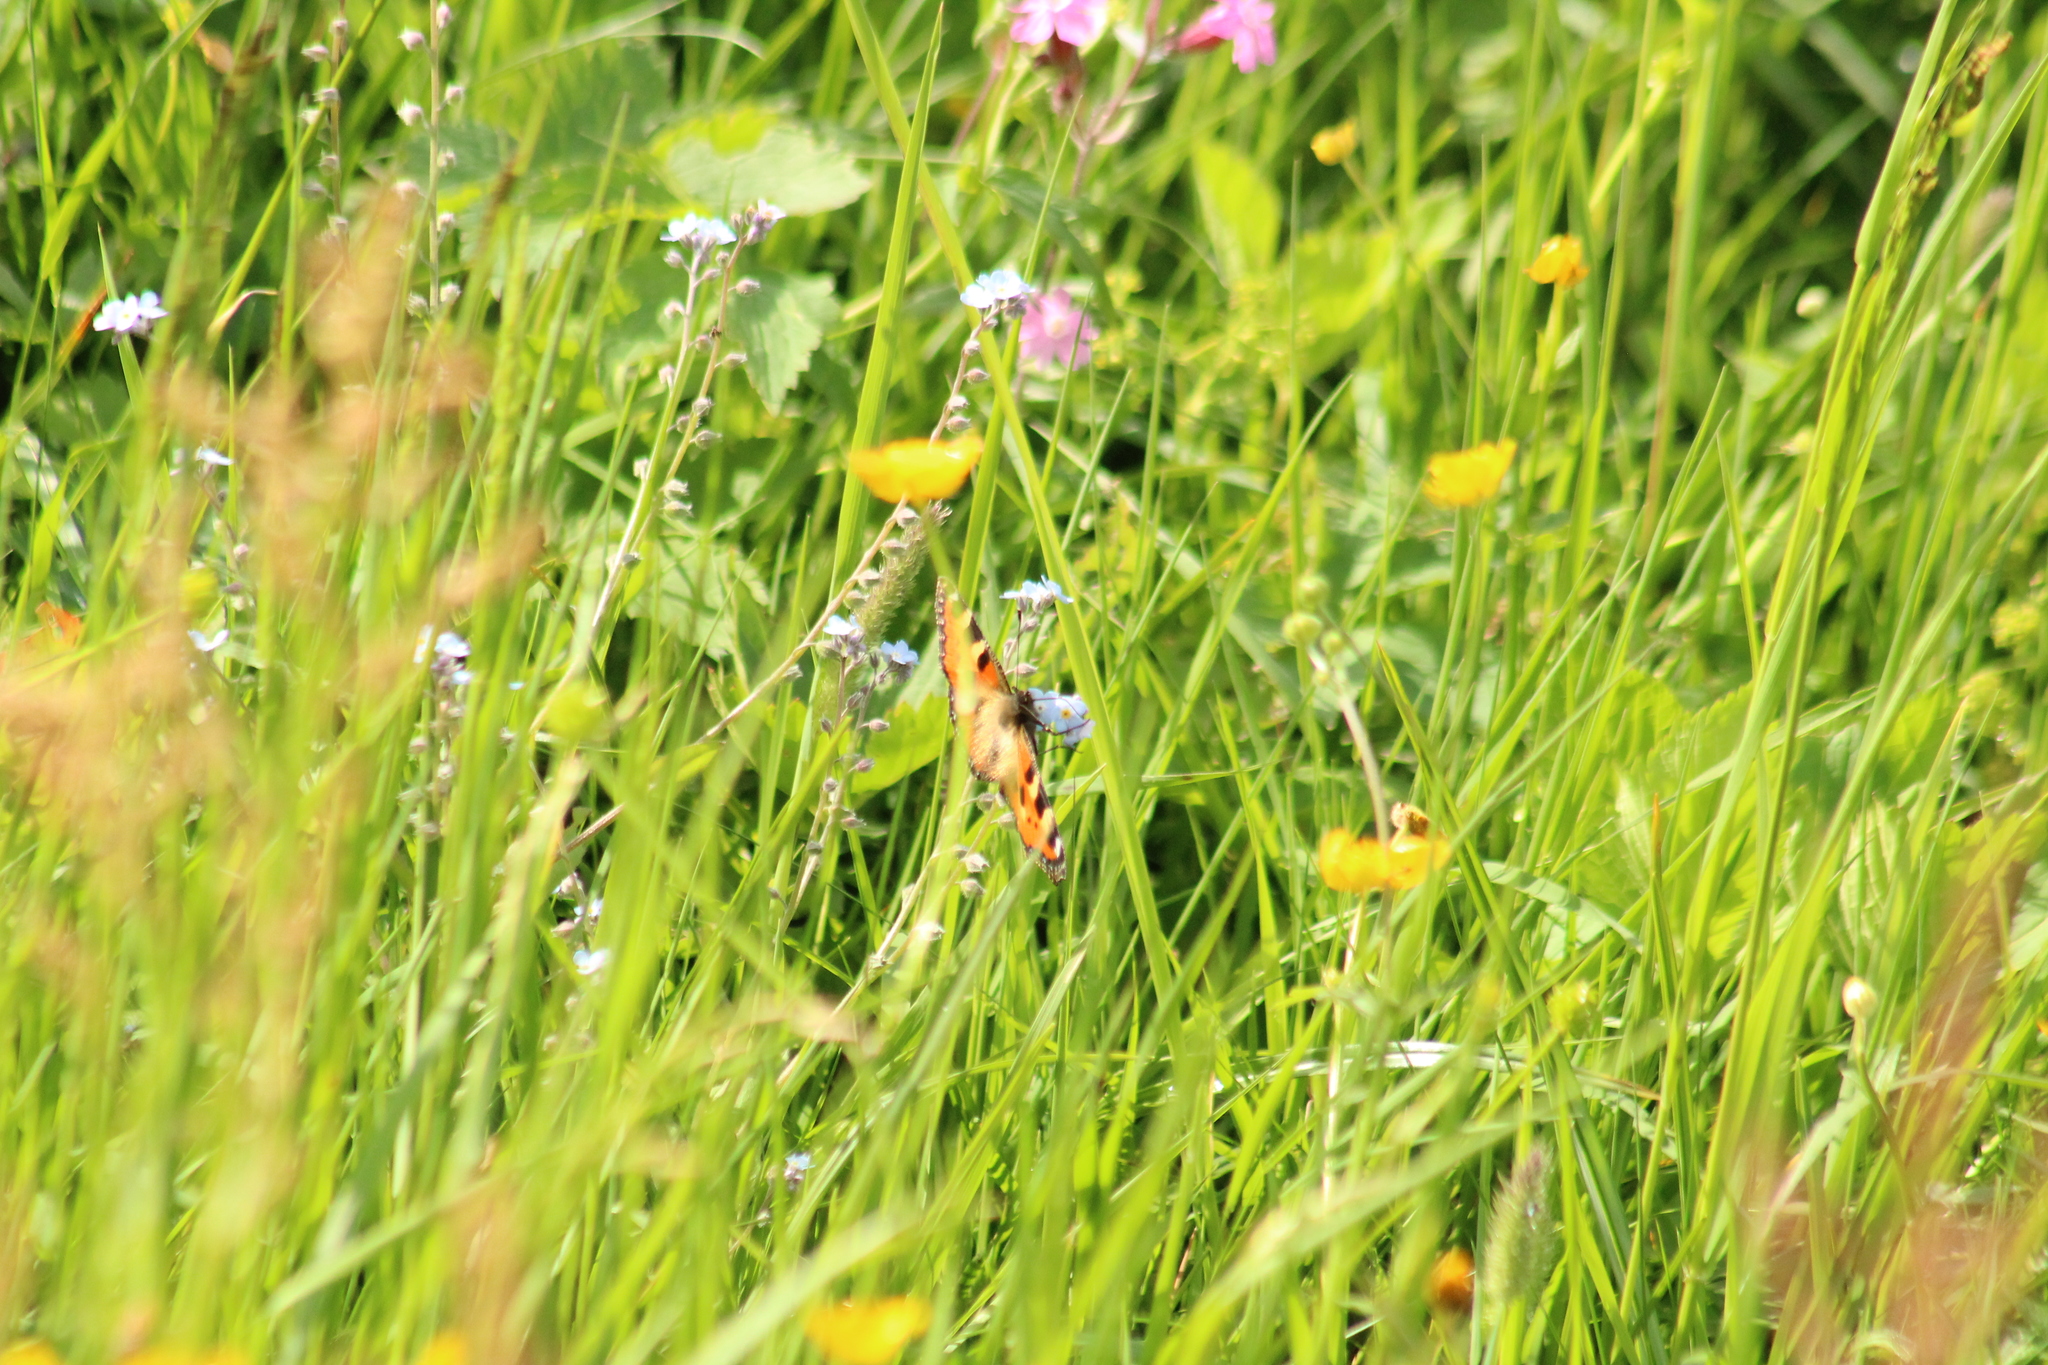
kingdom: Animalia
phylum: Arthropoda
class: Insecta
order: Lepidoptera
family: Nymphalidae
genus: Aglais
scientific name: Aglais urticae
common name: Small tortoiseshell
